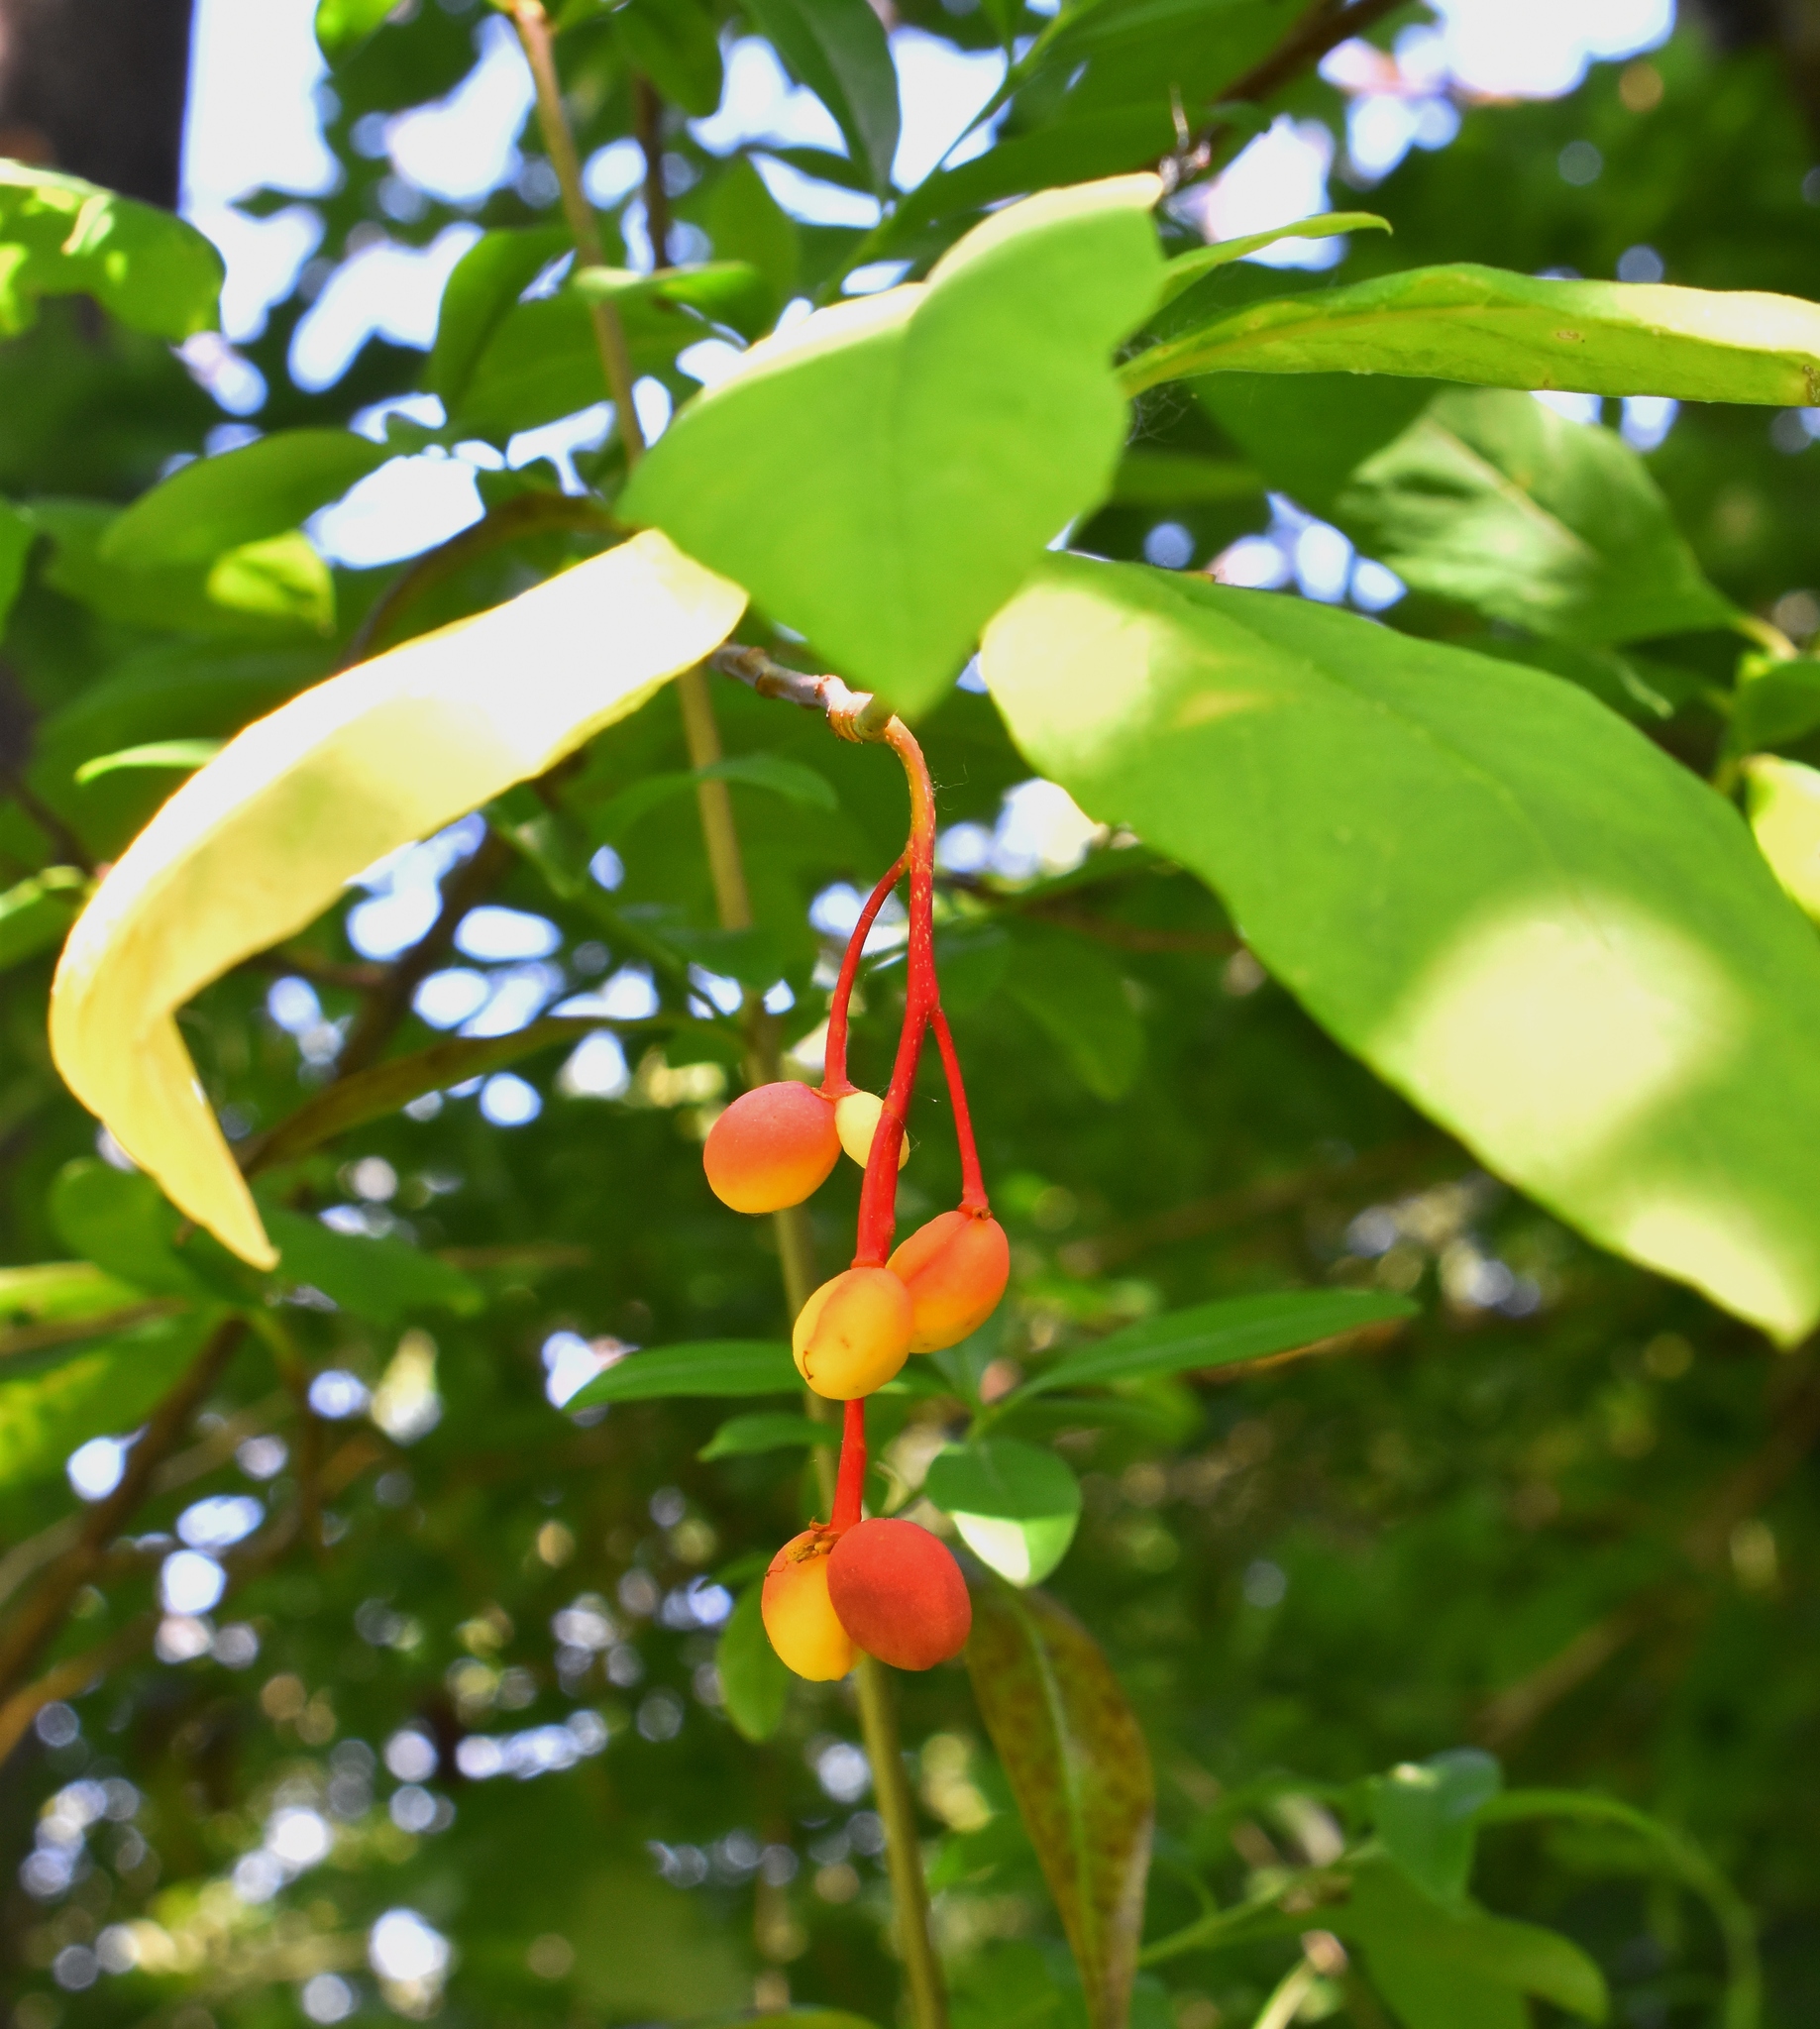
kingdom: Plantae
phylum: Tracheophyta
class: Magnoliopsida
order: Rosales
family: Rosaceae
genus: Oemleria
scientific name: Oemleria cerasiformis
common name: Osoberry
